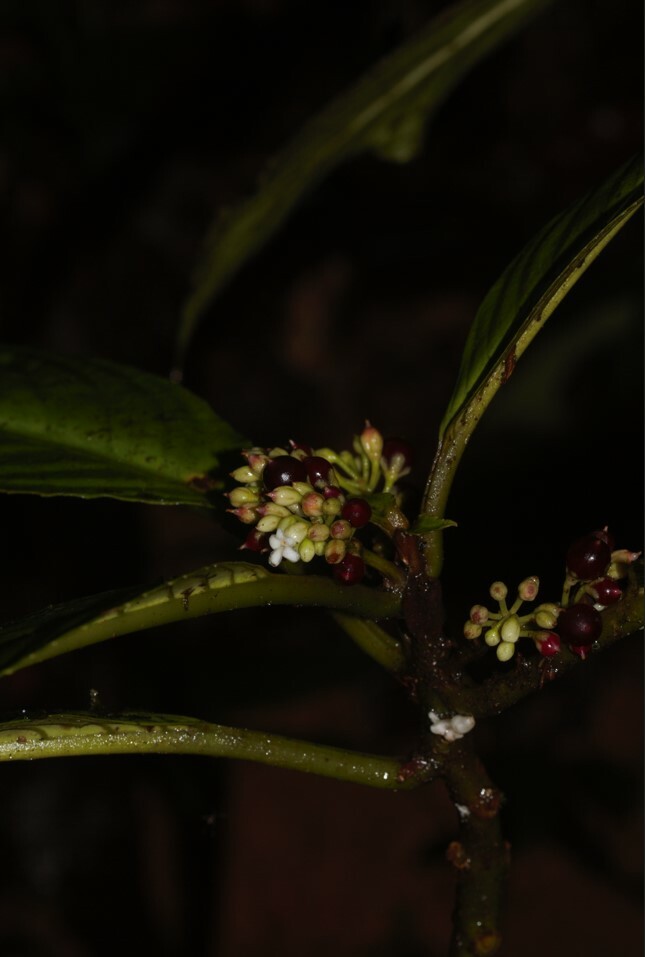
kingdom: Plantae
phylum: Tracheophyta
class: Magnoliopsida
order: Lamiales
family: Gesneriaceae
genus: Besleria
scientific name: Besleria flavovirens
